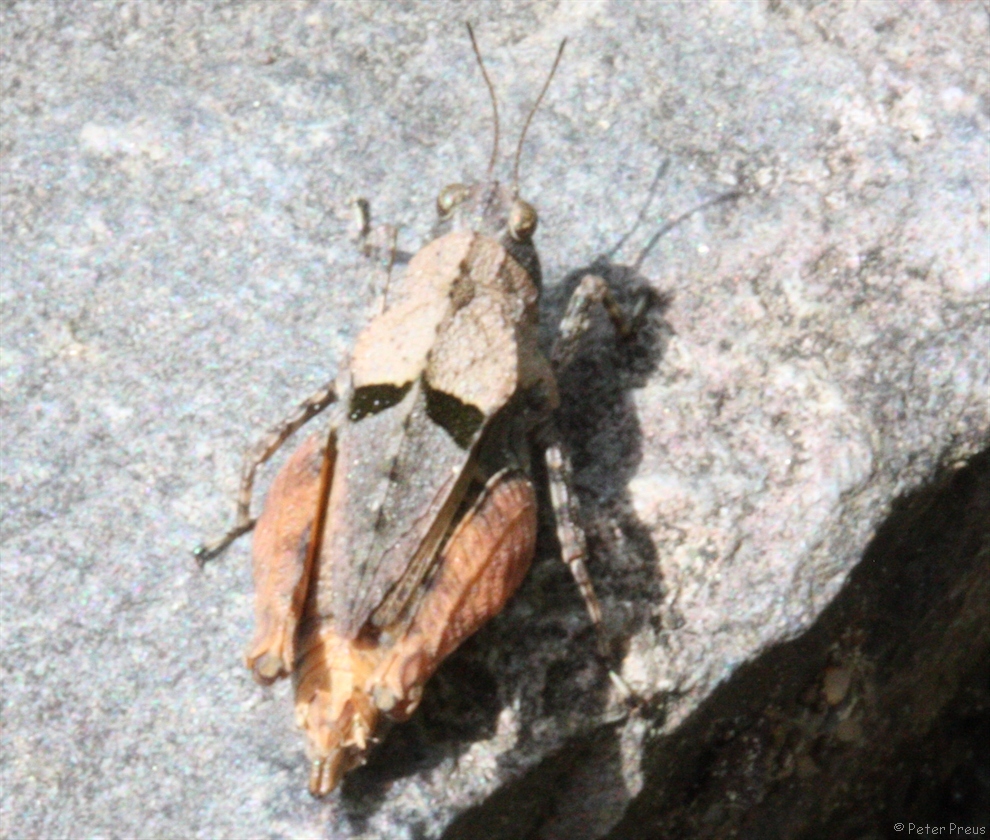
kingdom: Animalia
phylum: Arthropoda
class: Insecta
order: Orthoptera
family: Tetrigidae
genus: Tetrix
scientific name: Tetrix tenuicornis
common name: Long-horned groundhopper
